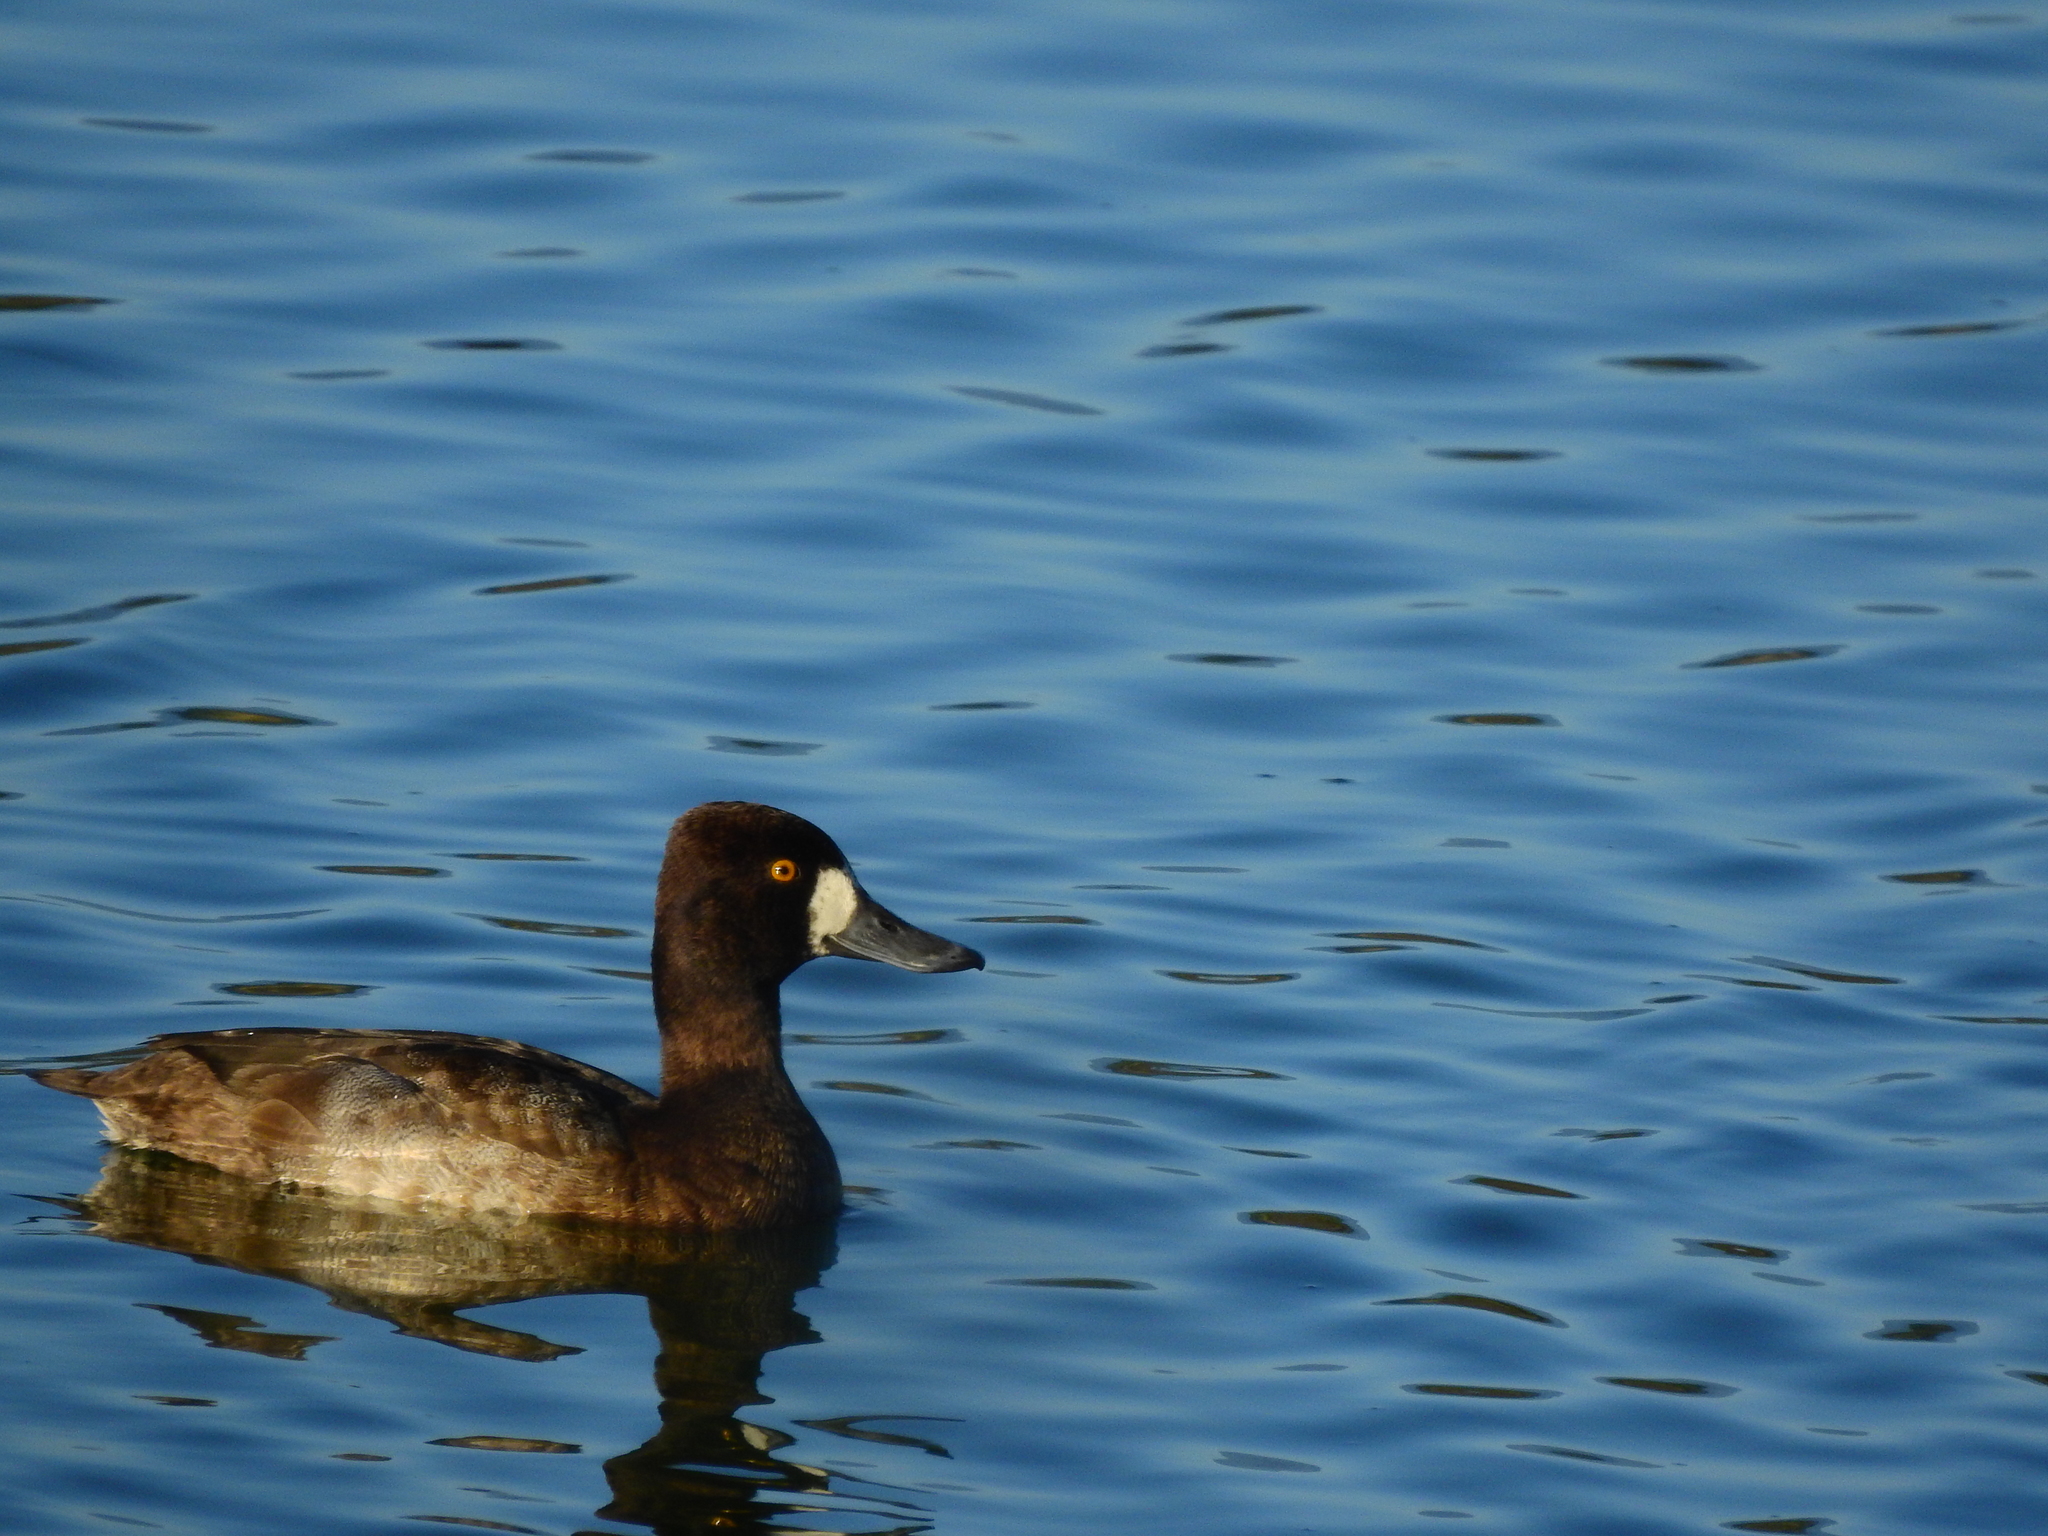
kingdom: Animalia
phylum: Chordata
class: Aves
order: Anseriformes
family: Anatidae
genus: Aythya
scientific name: Aythya affinis
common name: Lesser scaup
